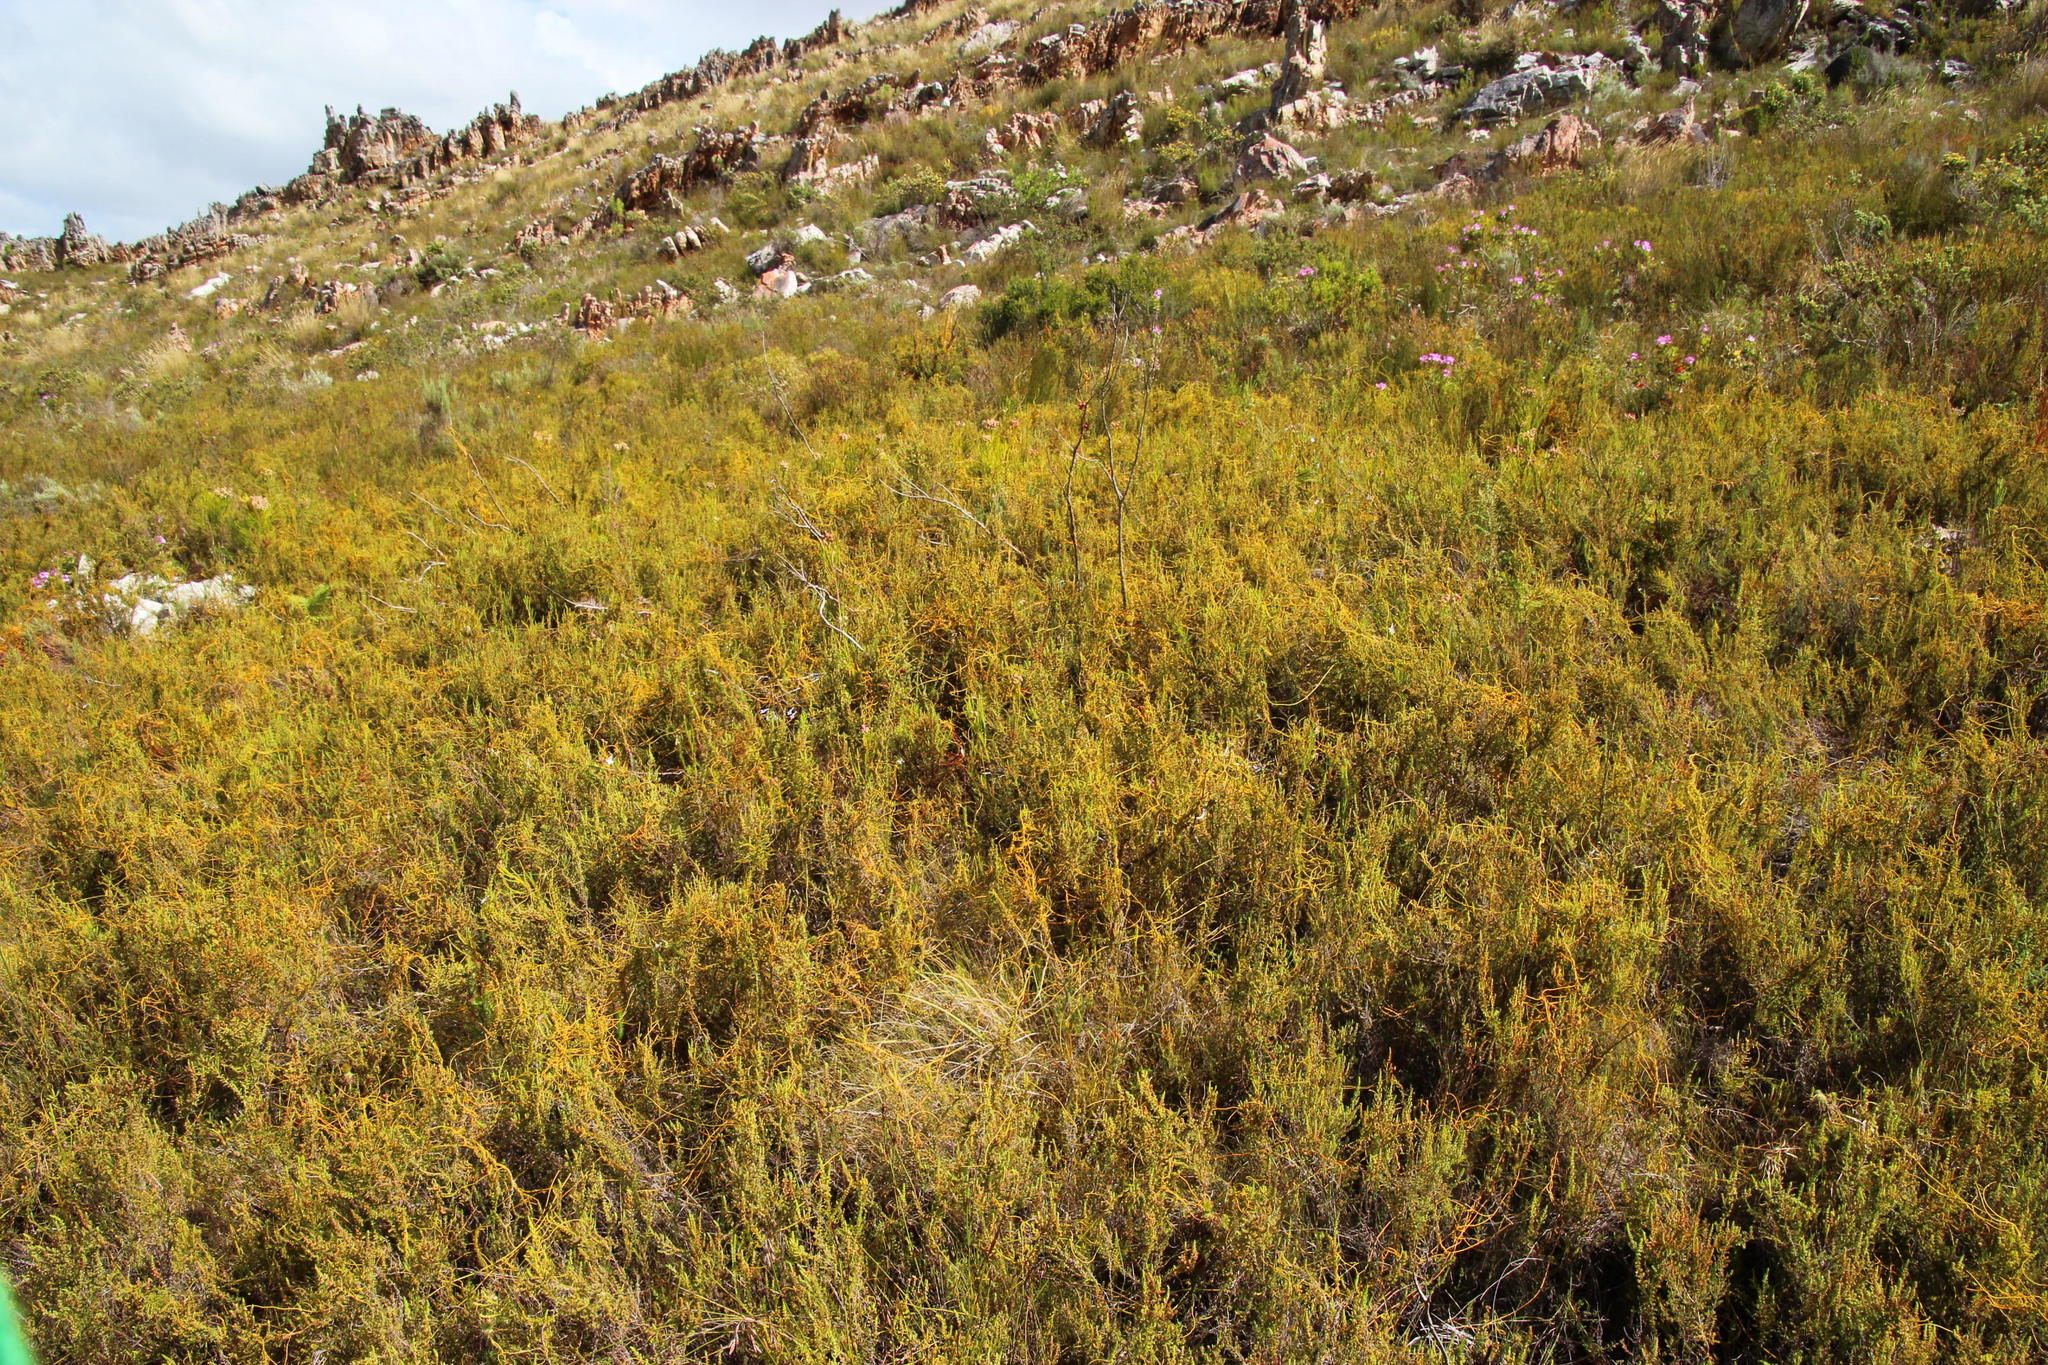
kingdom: Plantae
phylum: Tracheophyta
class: Magnoliopsida
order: Laurales
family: Lauraceae
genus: Cassytha
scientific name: Cassytha ciliolata
